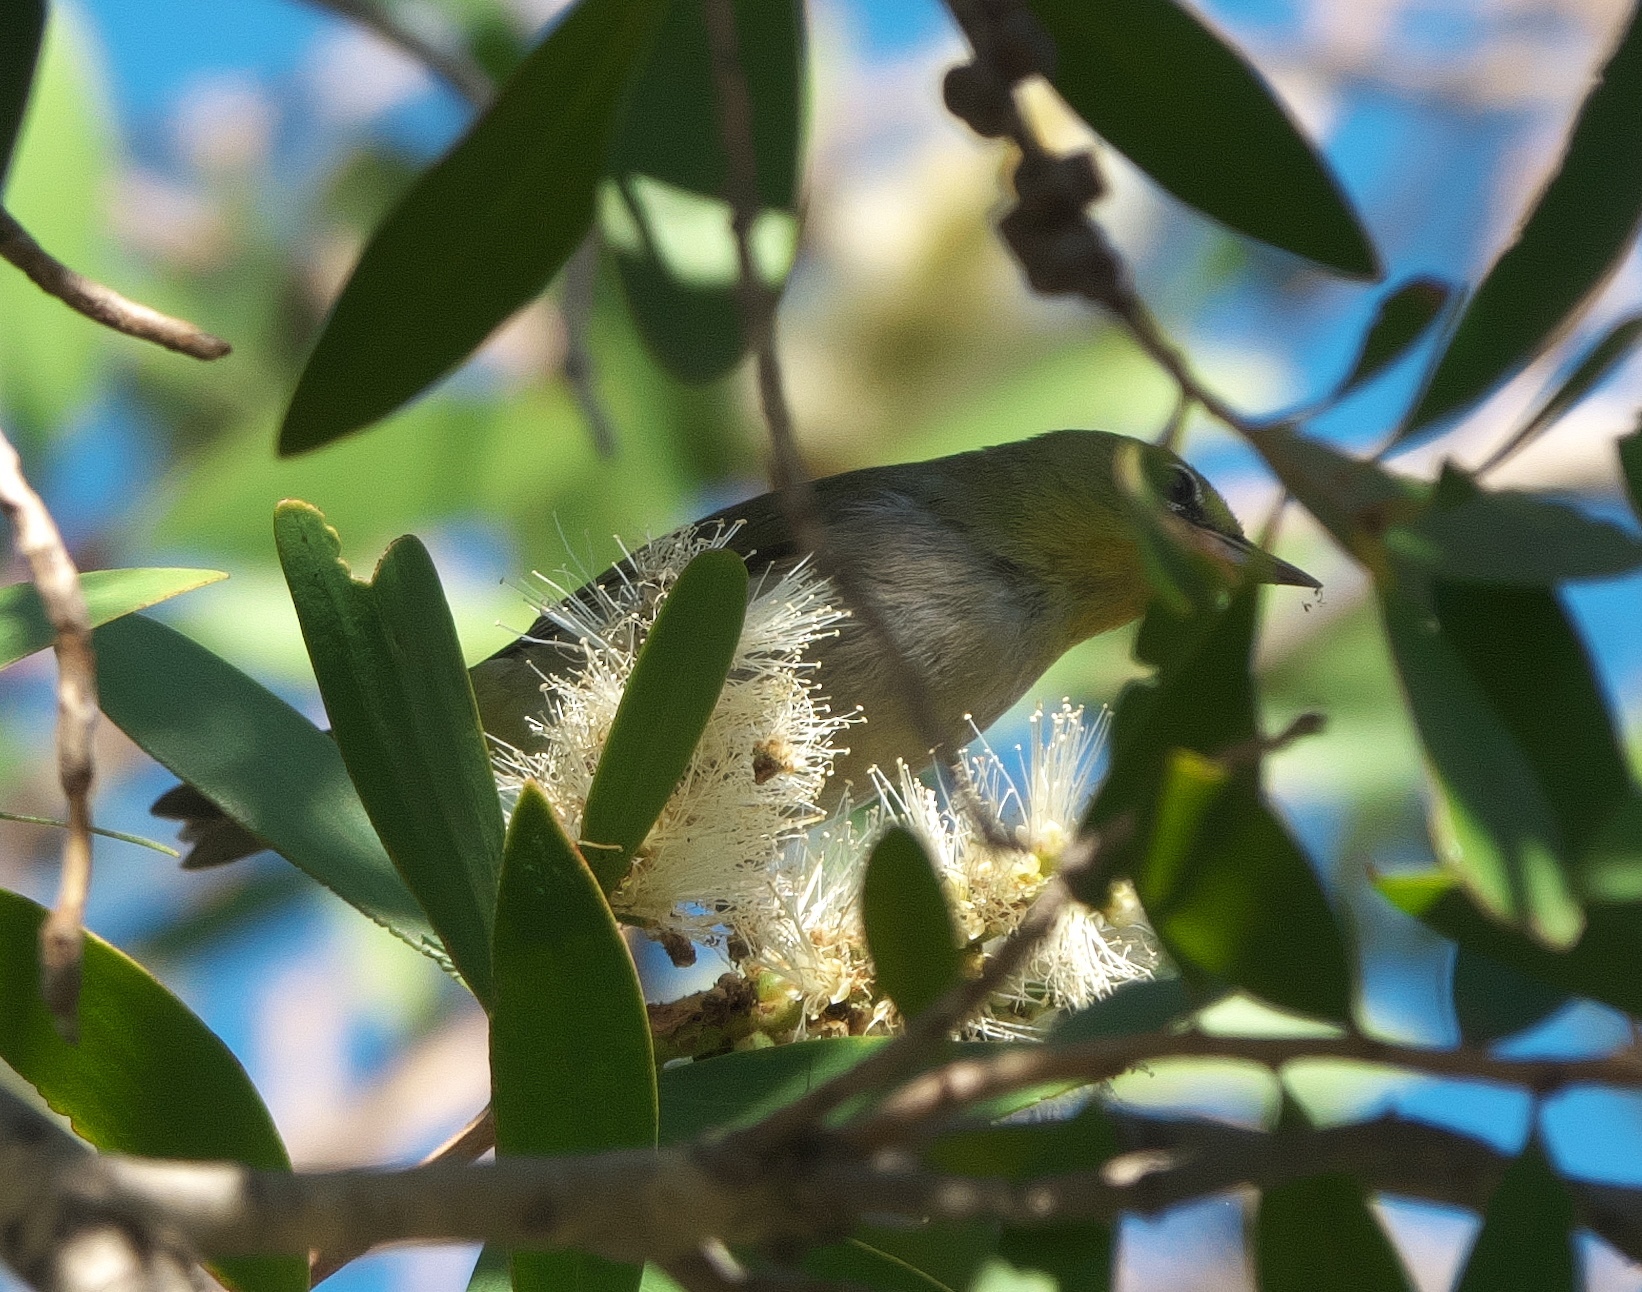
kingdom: Animalia
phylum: Chordata
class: Aves
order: Passeriformes
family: Zosteropidae
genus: Zosterops
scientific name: Zosterops lateralis
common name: Silvereye
